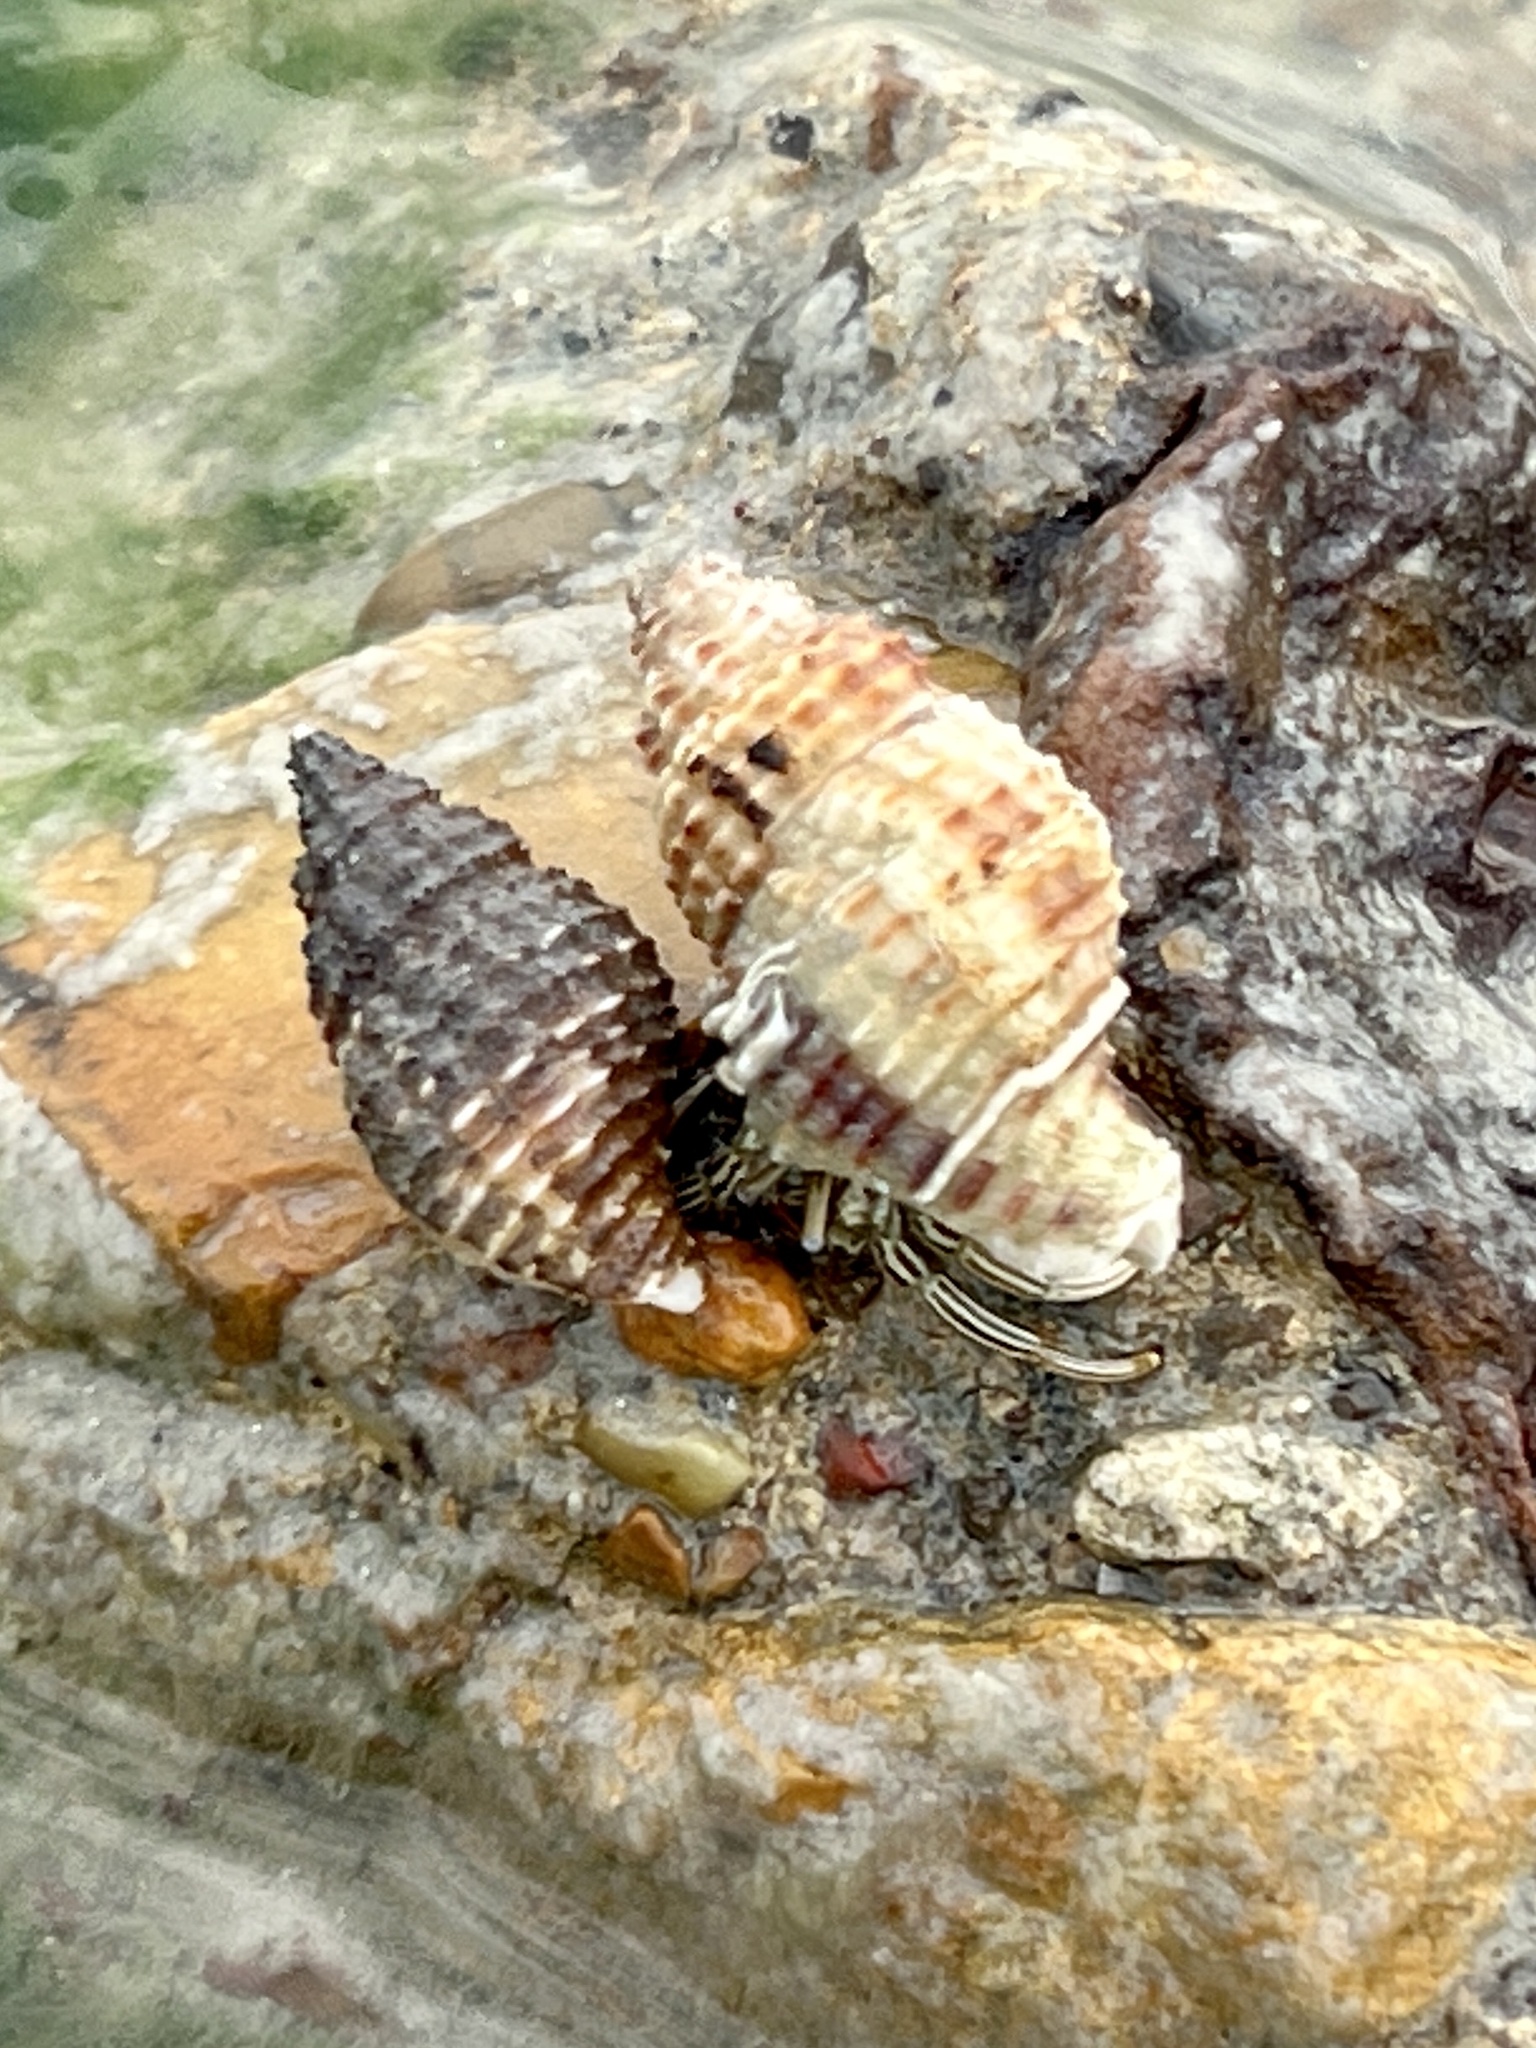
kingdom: Animalia
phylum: Mollusca
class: Gastropoda
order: Neogastropoda
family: Pisaniidae
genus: Solenosteira
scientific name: Solenosteira cancellaria
